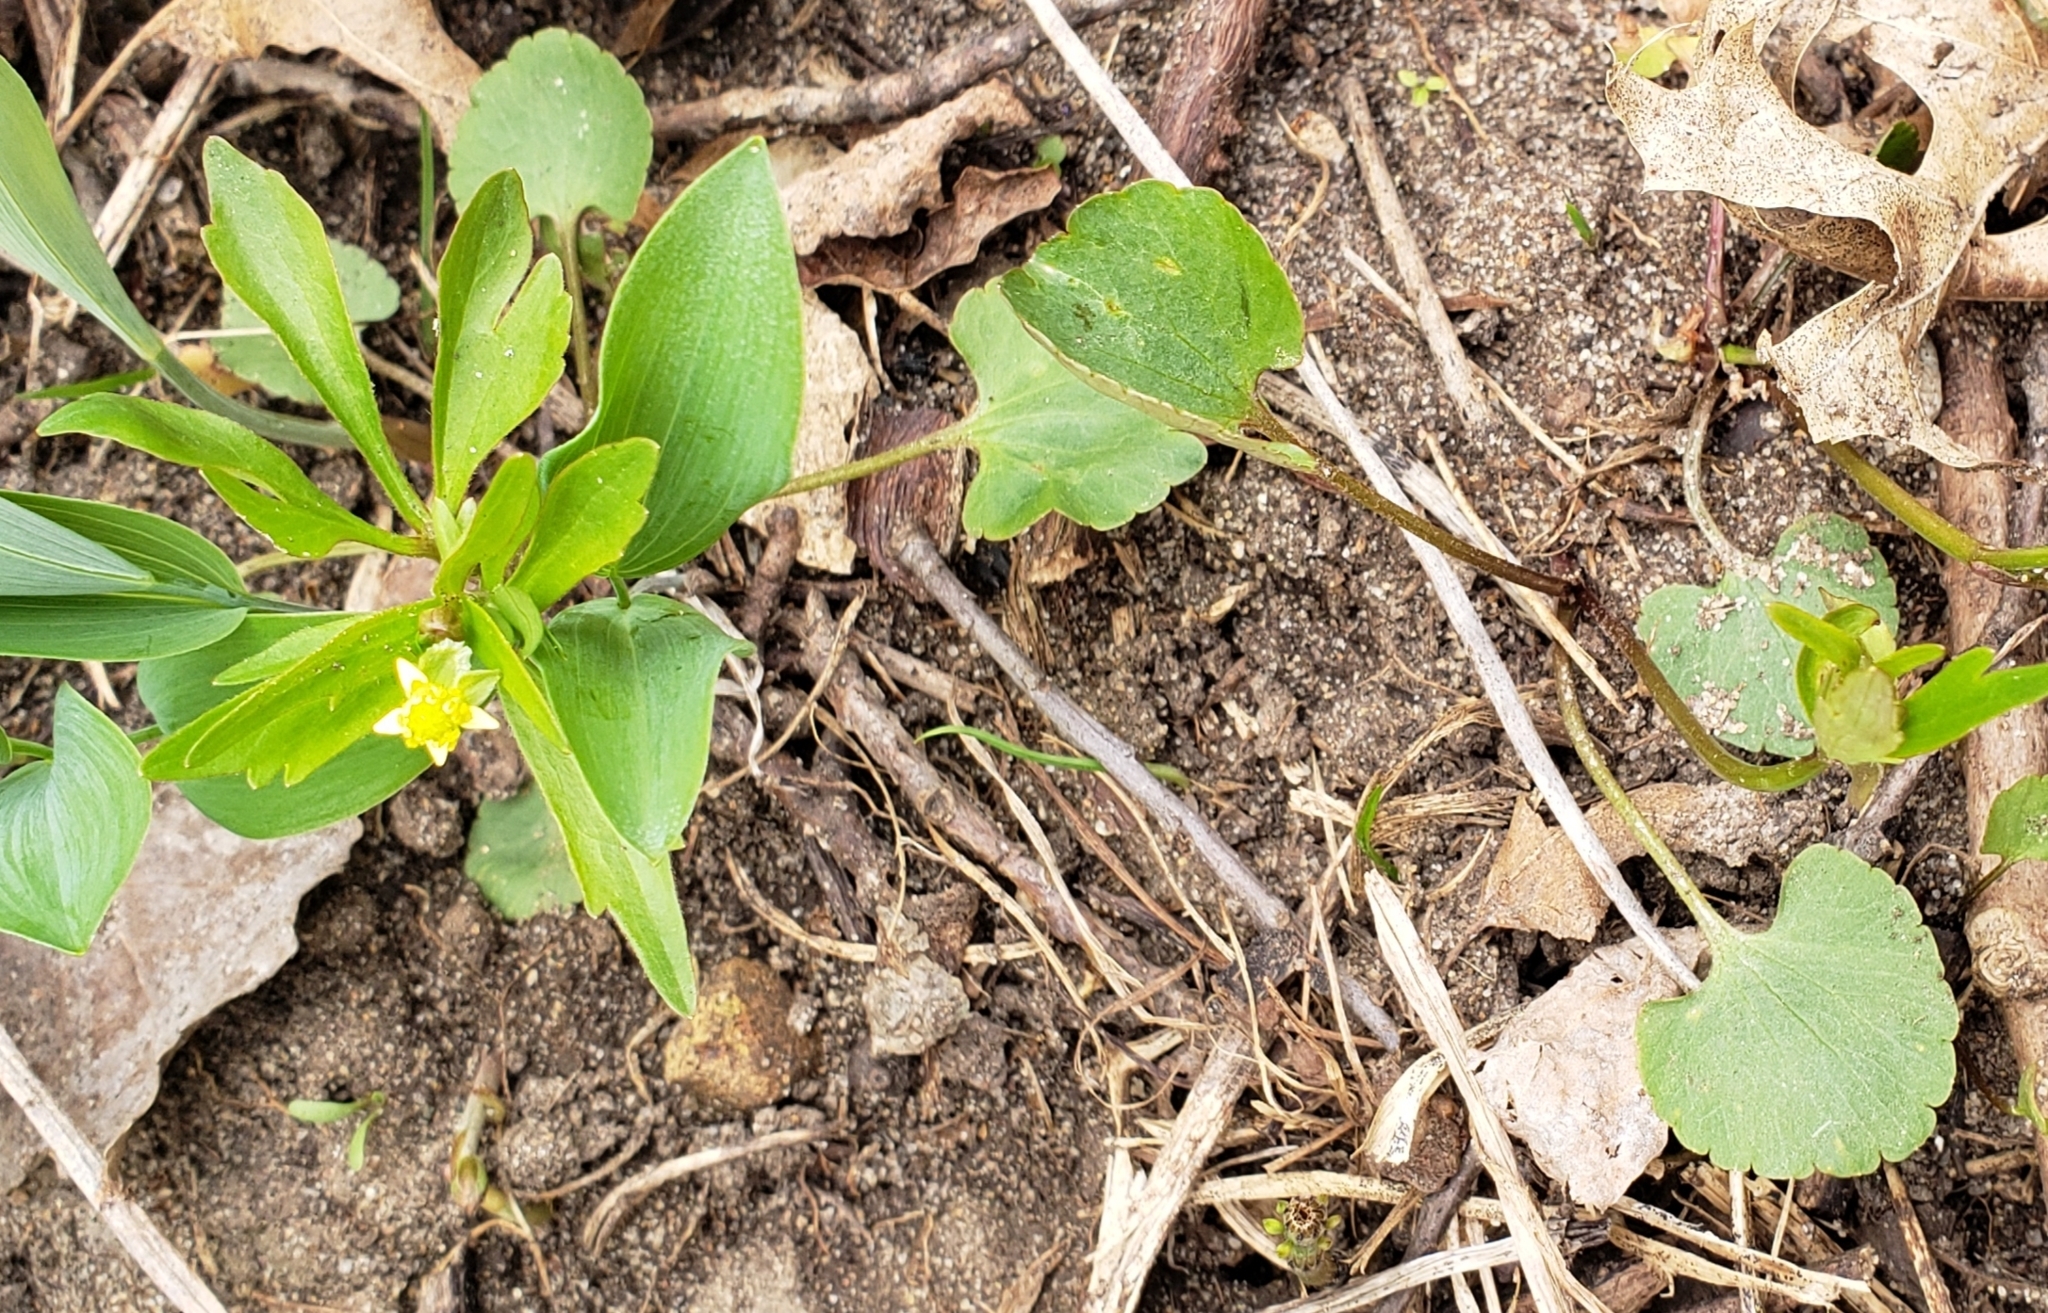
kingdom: Plantae
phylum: Tracheophyta
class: Magnoliopsida
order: Ranunculales
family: Ranunculaceae
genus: Ranunculus
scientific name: Ranunculus abortivus
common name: Early wood buttercup
